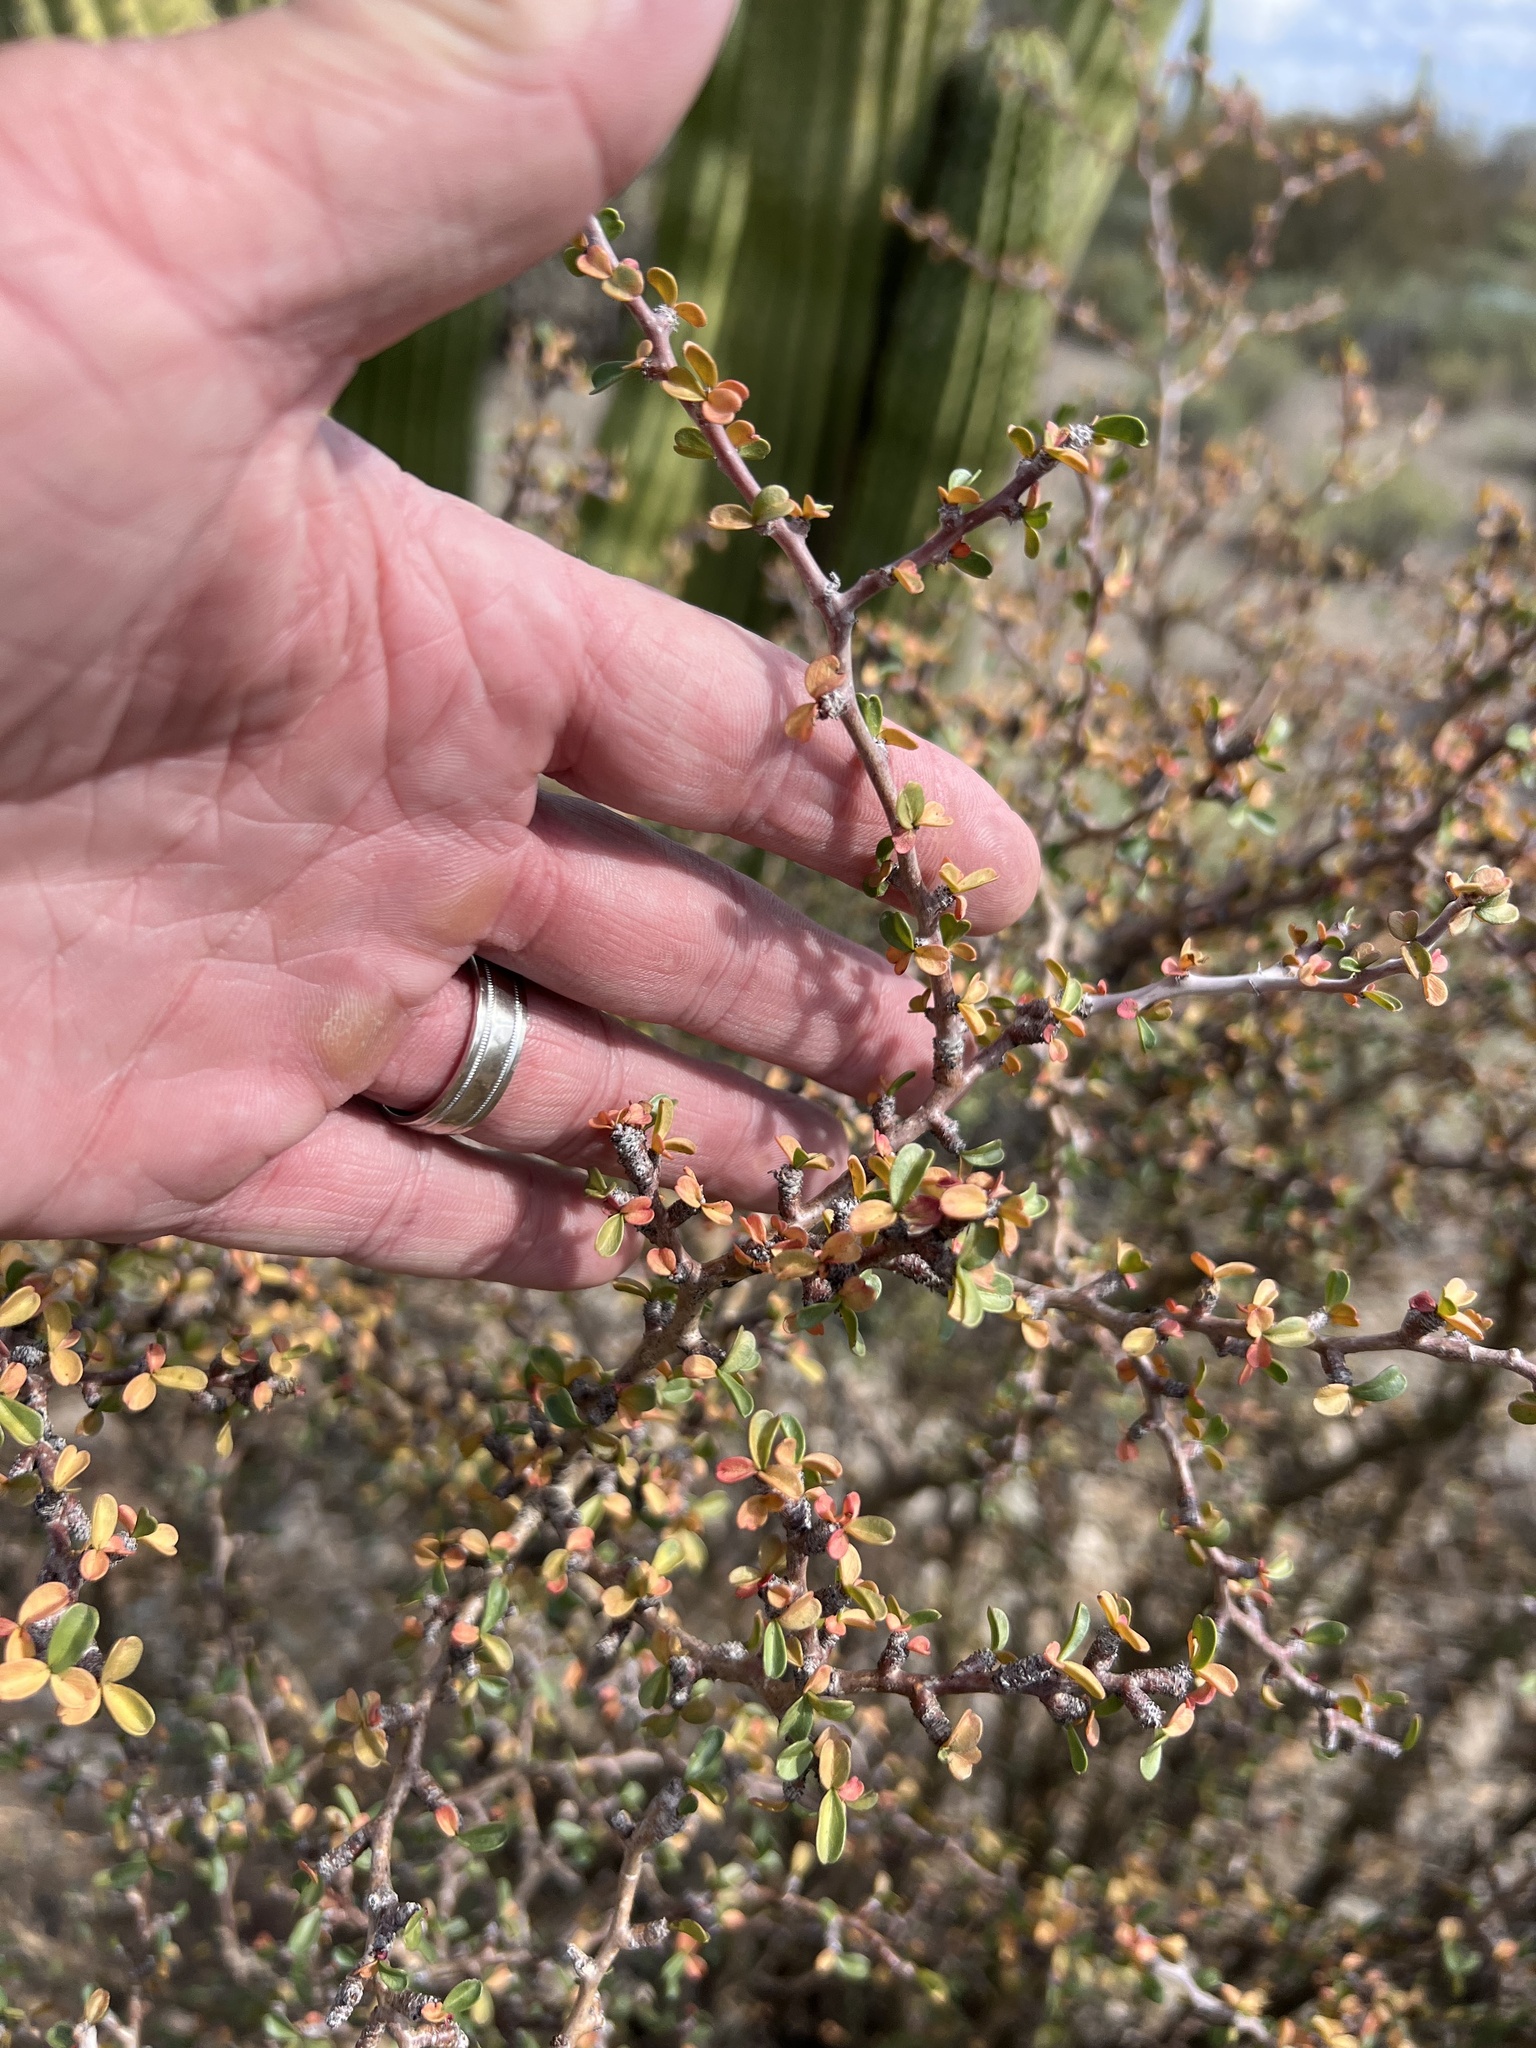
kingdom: Plantae
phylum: Tracheophyta
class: Magnoliopsida
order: Malpighiales
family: Euphorbiaceae
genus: Jatropha
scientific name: Jatropha cuneata
